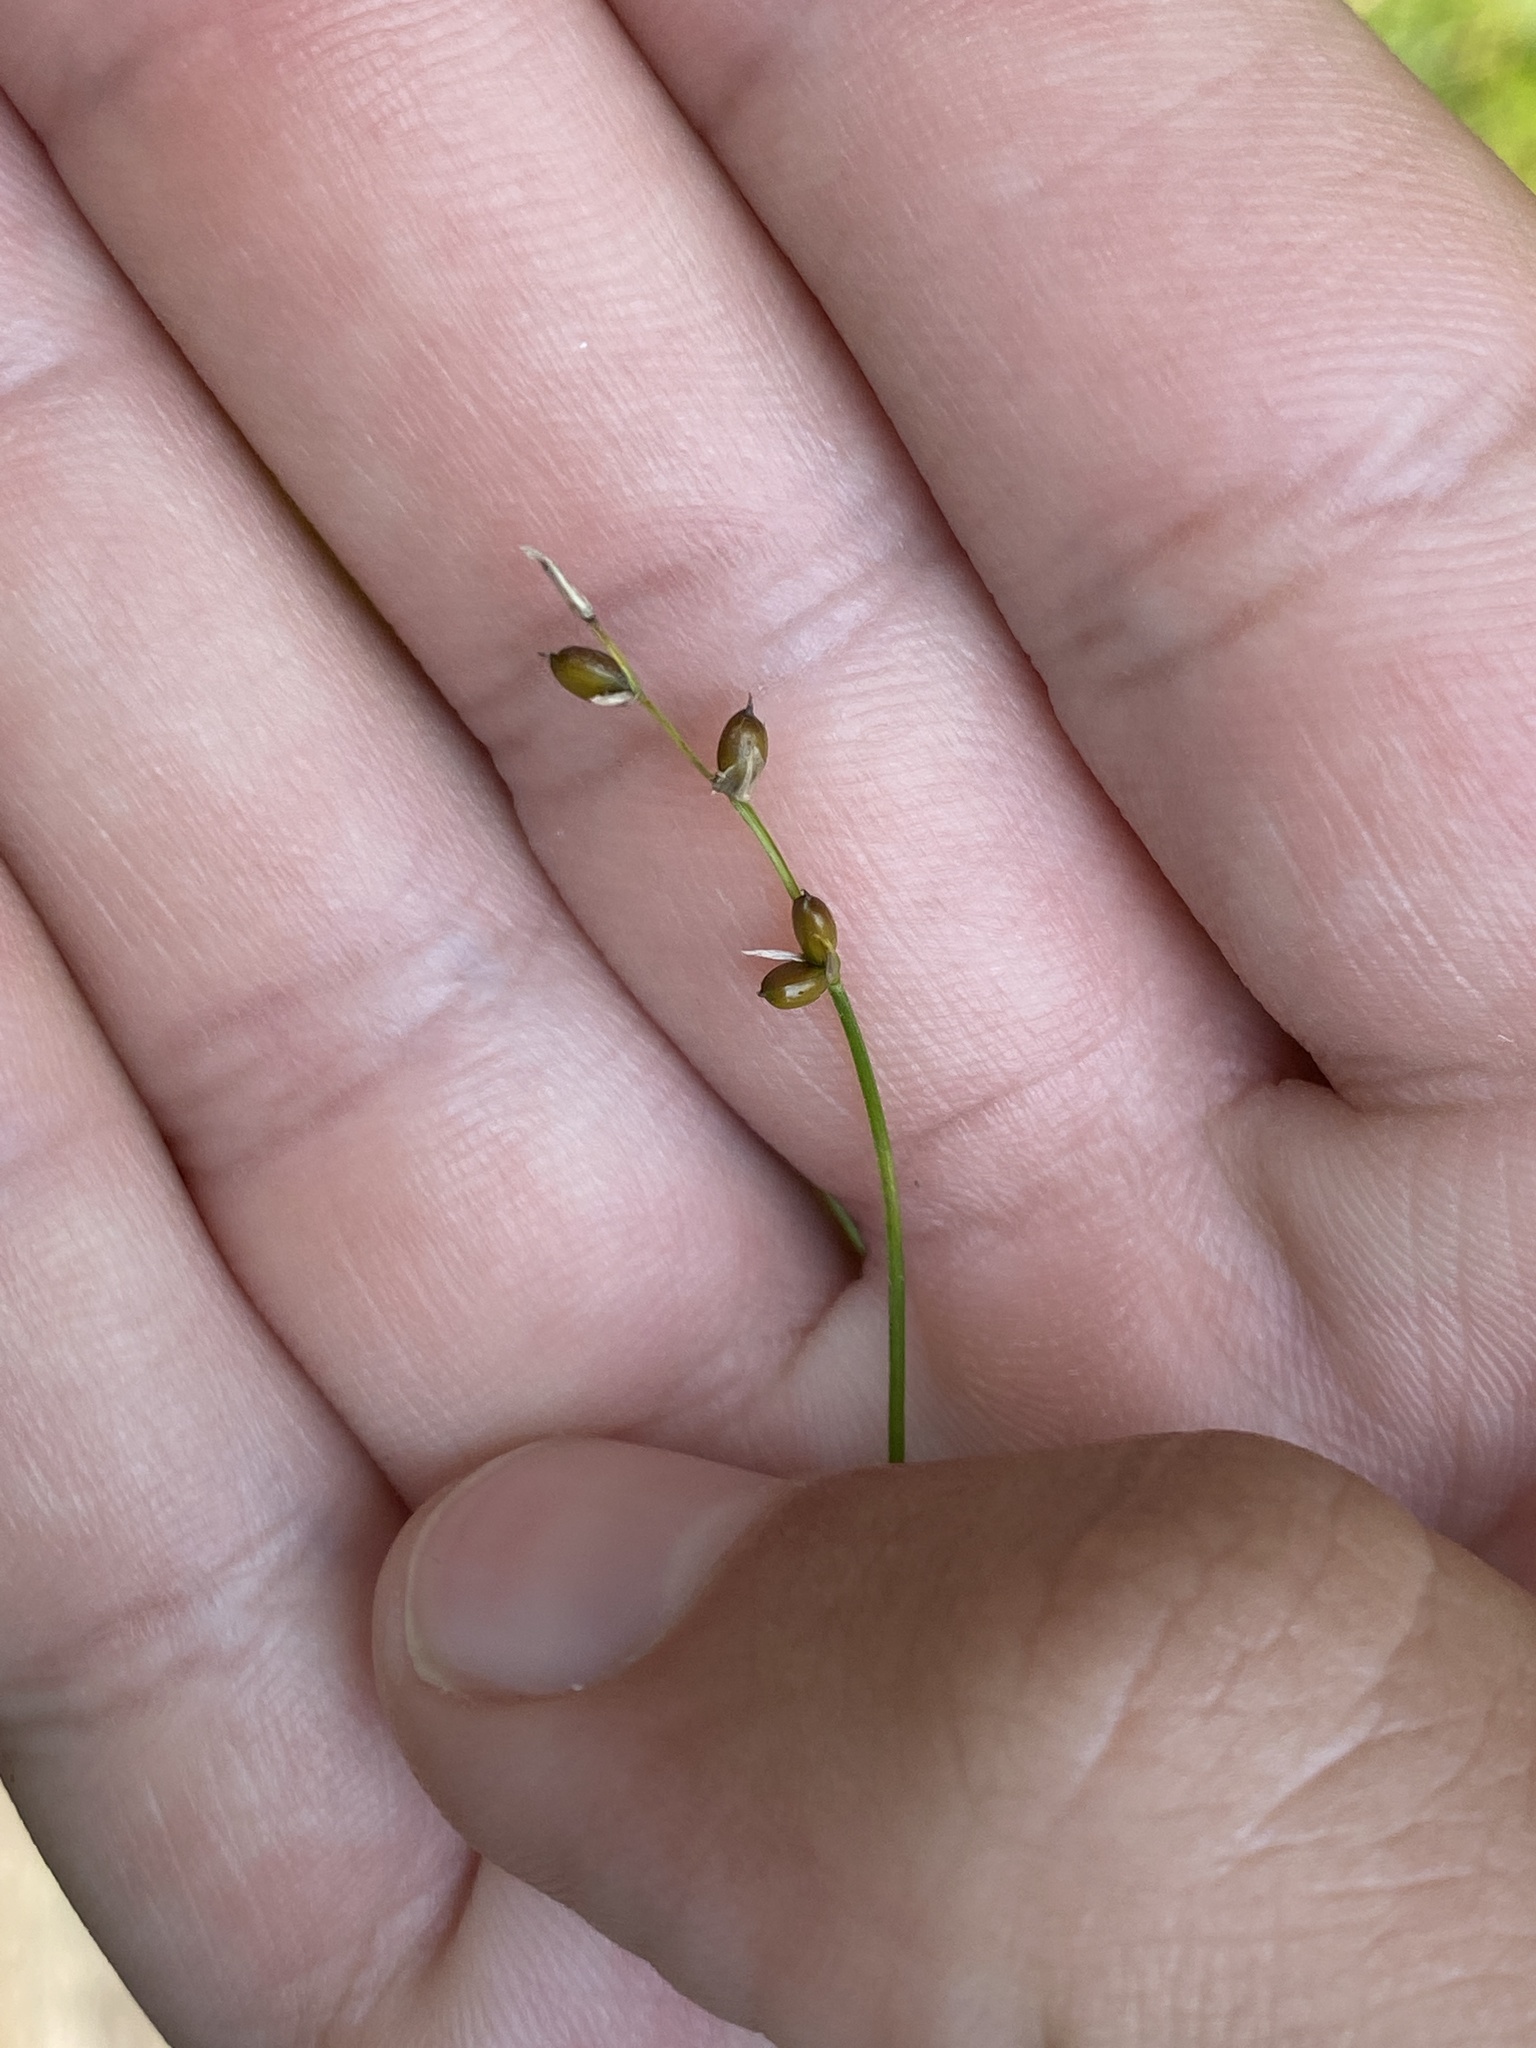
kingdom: Plantae
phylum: Tracheophyta
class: Liliopsida
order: Poales
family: Cyperaceae
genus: Carex
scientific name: Carex disperma
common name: Short-leaved sedge
